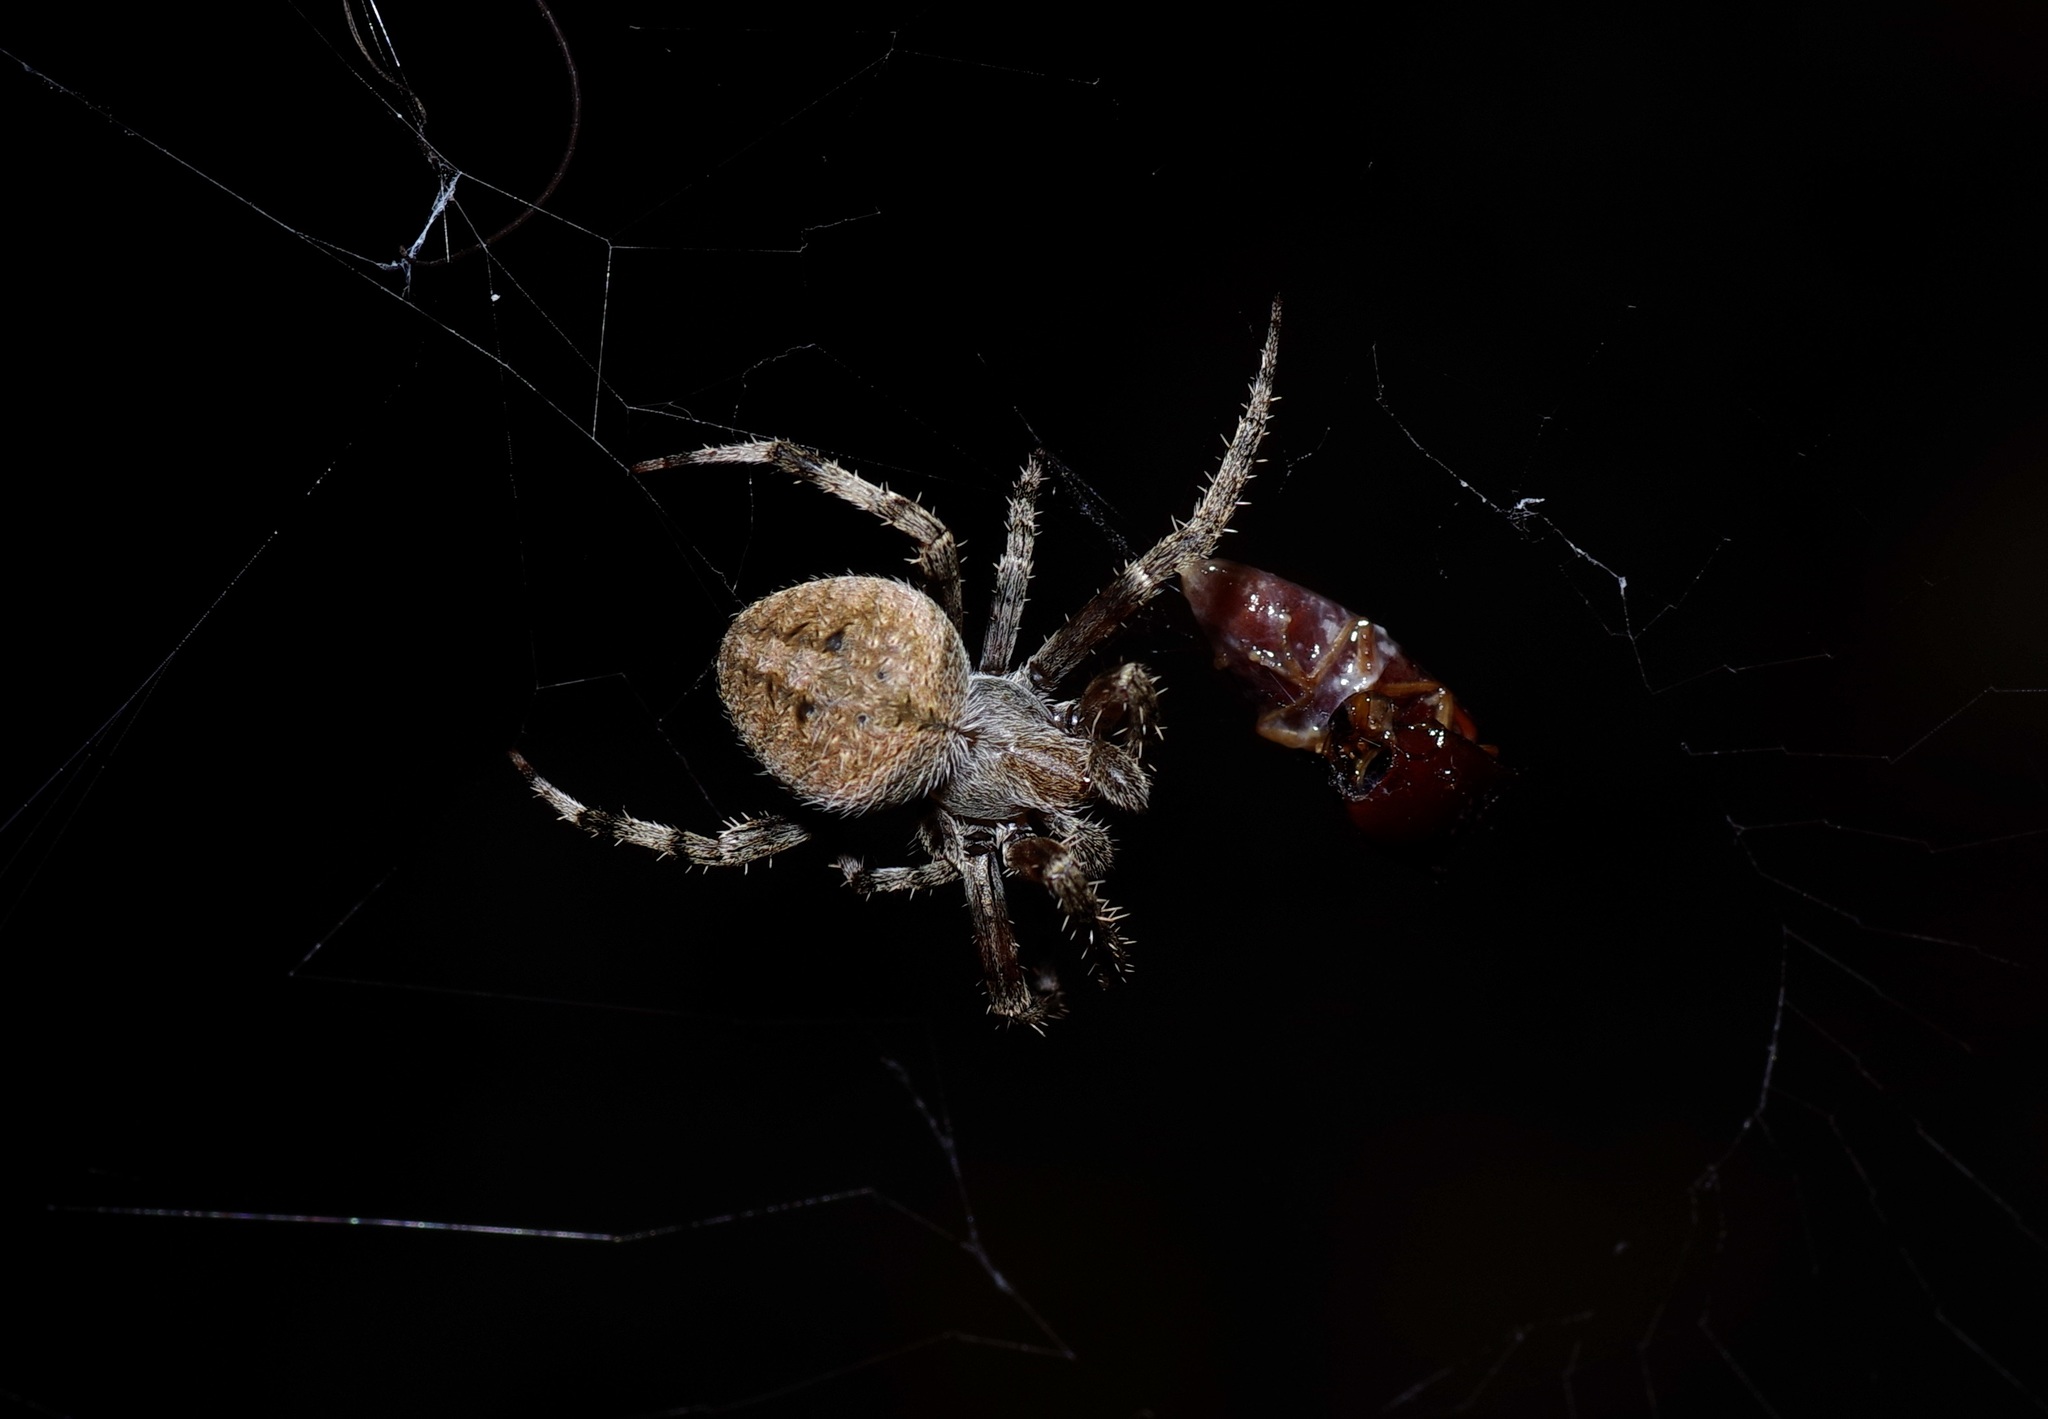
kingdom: Animalia
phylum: Arthropoda
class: Arachnida
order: Araneae
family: Araneidae
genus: Neoscona
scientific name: Neoscona crucifera
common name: Spotted orbweaver
